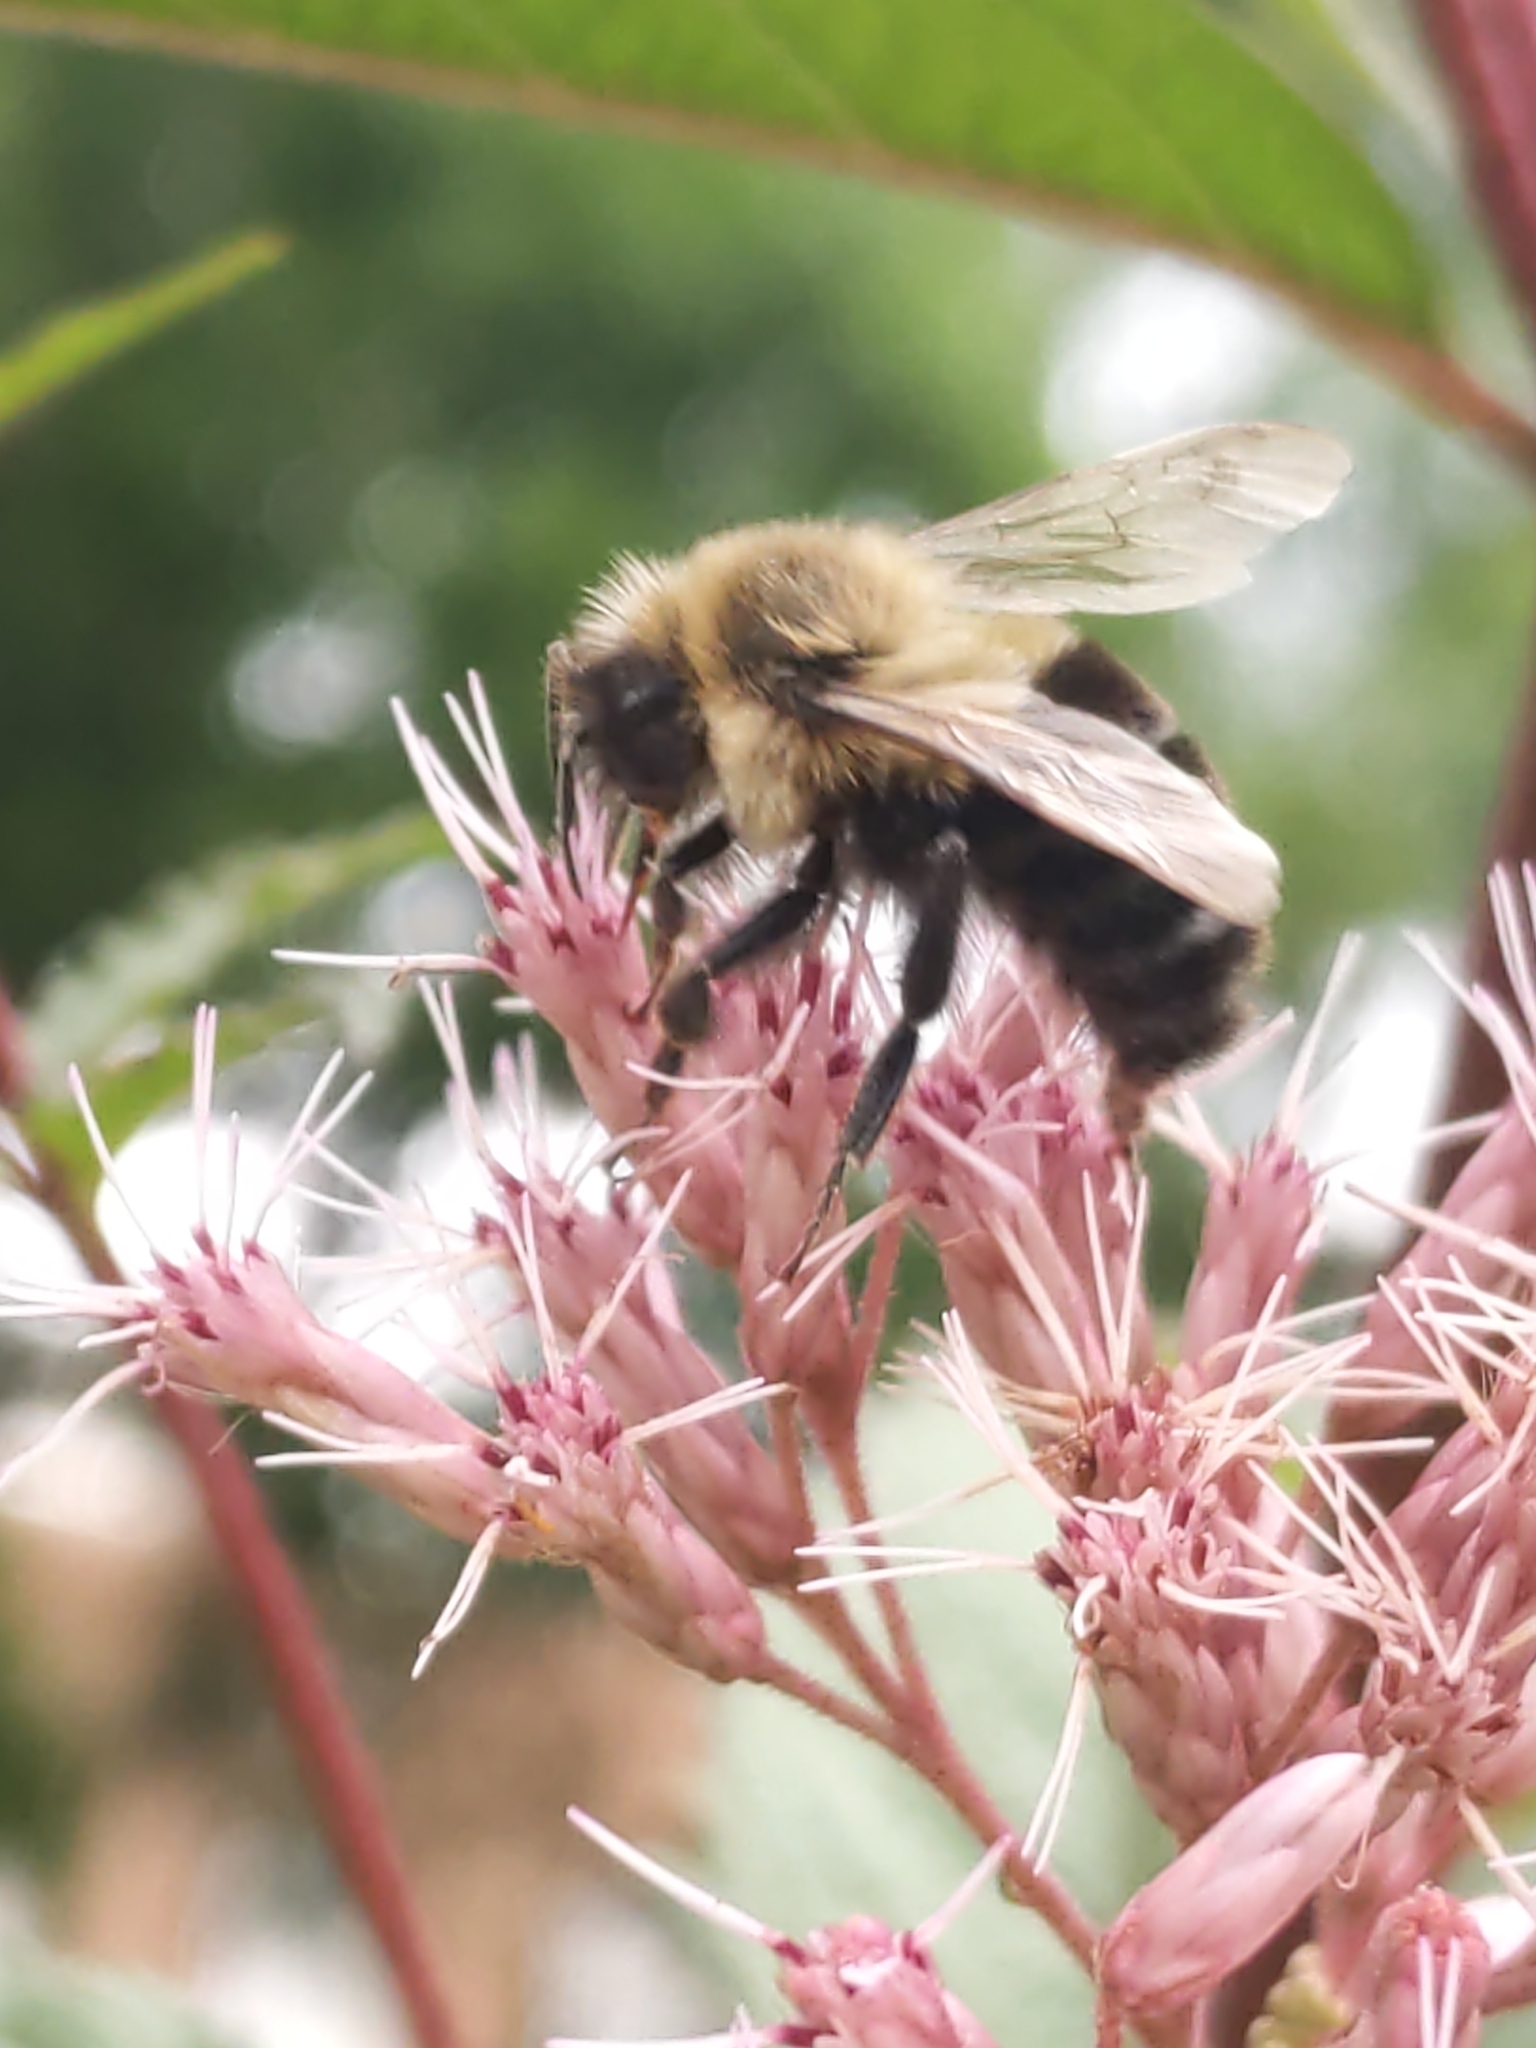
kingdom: Animalia
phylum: Arthropoda
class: Insecta
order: Hymenoptera
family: Apidae
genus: Bombus
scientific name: Bombus impatiens
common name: Common eastern bumble bee
